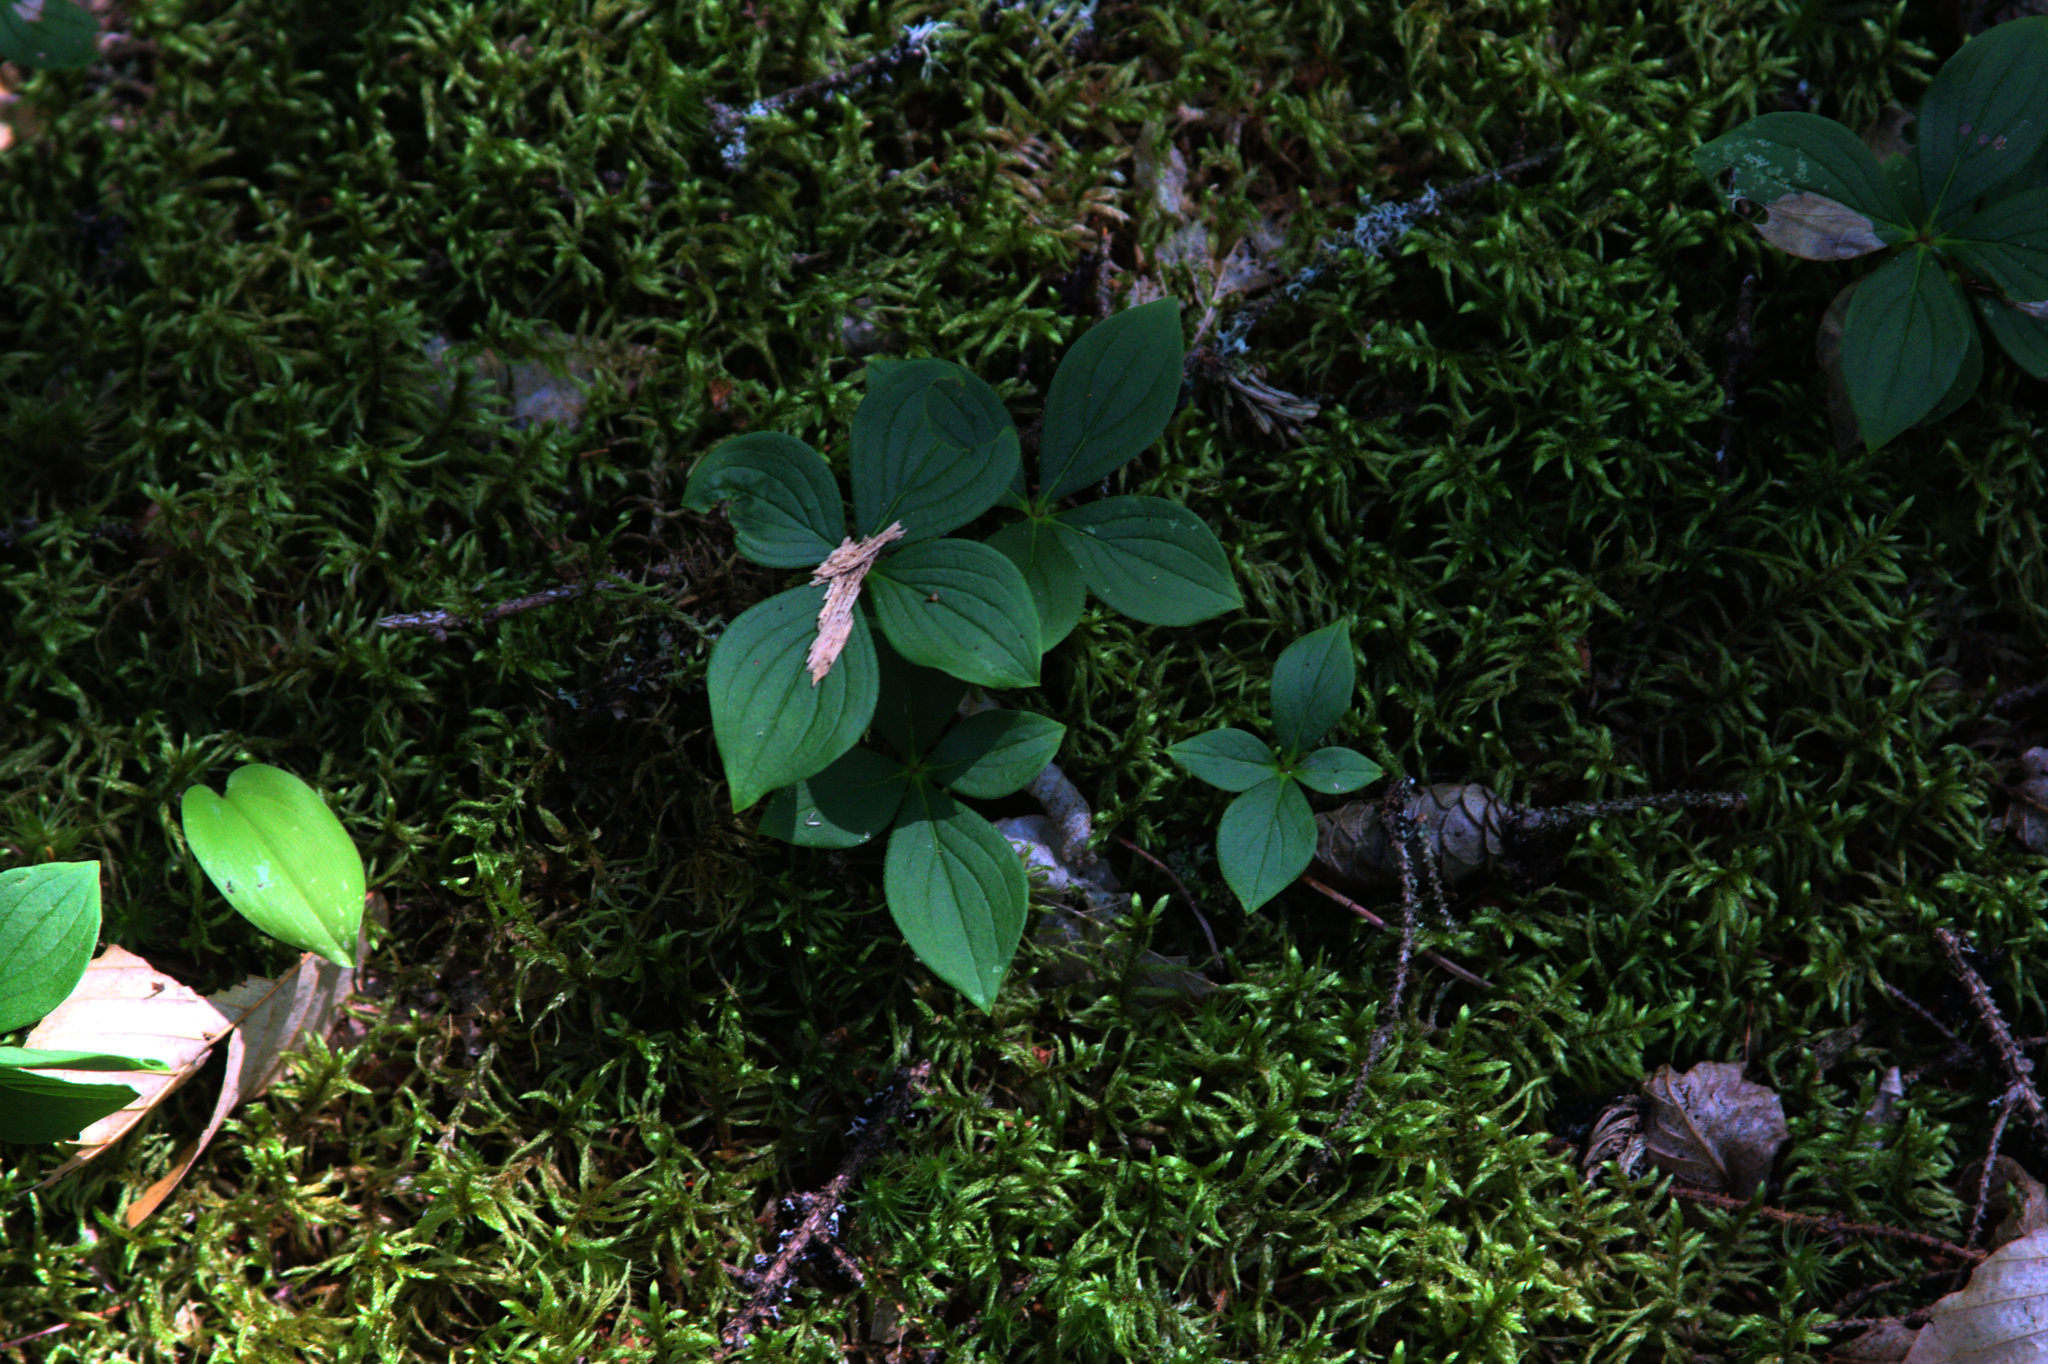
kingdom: Plantae
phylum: Tracheophyta
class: Magnoliopsida
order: Cornales
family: Cornaceae
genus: Cornus
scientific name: Cornus canadensis
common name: Creeping dogwood
